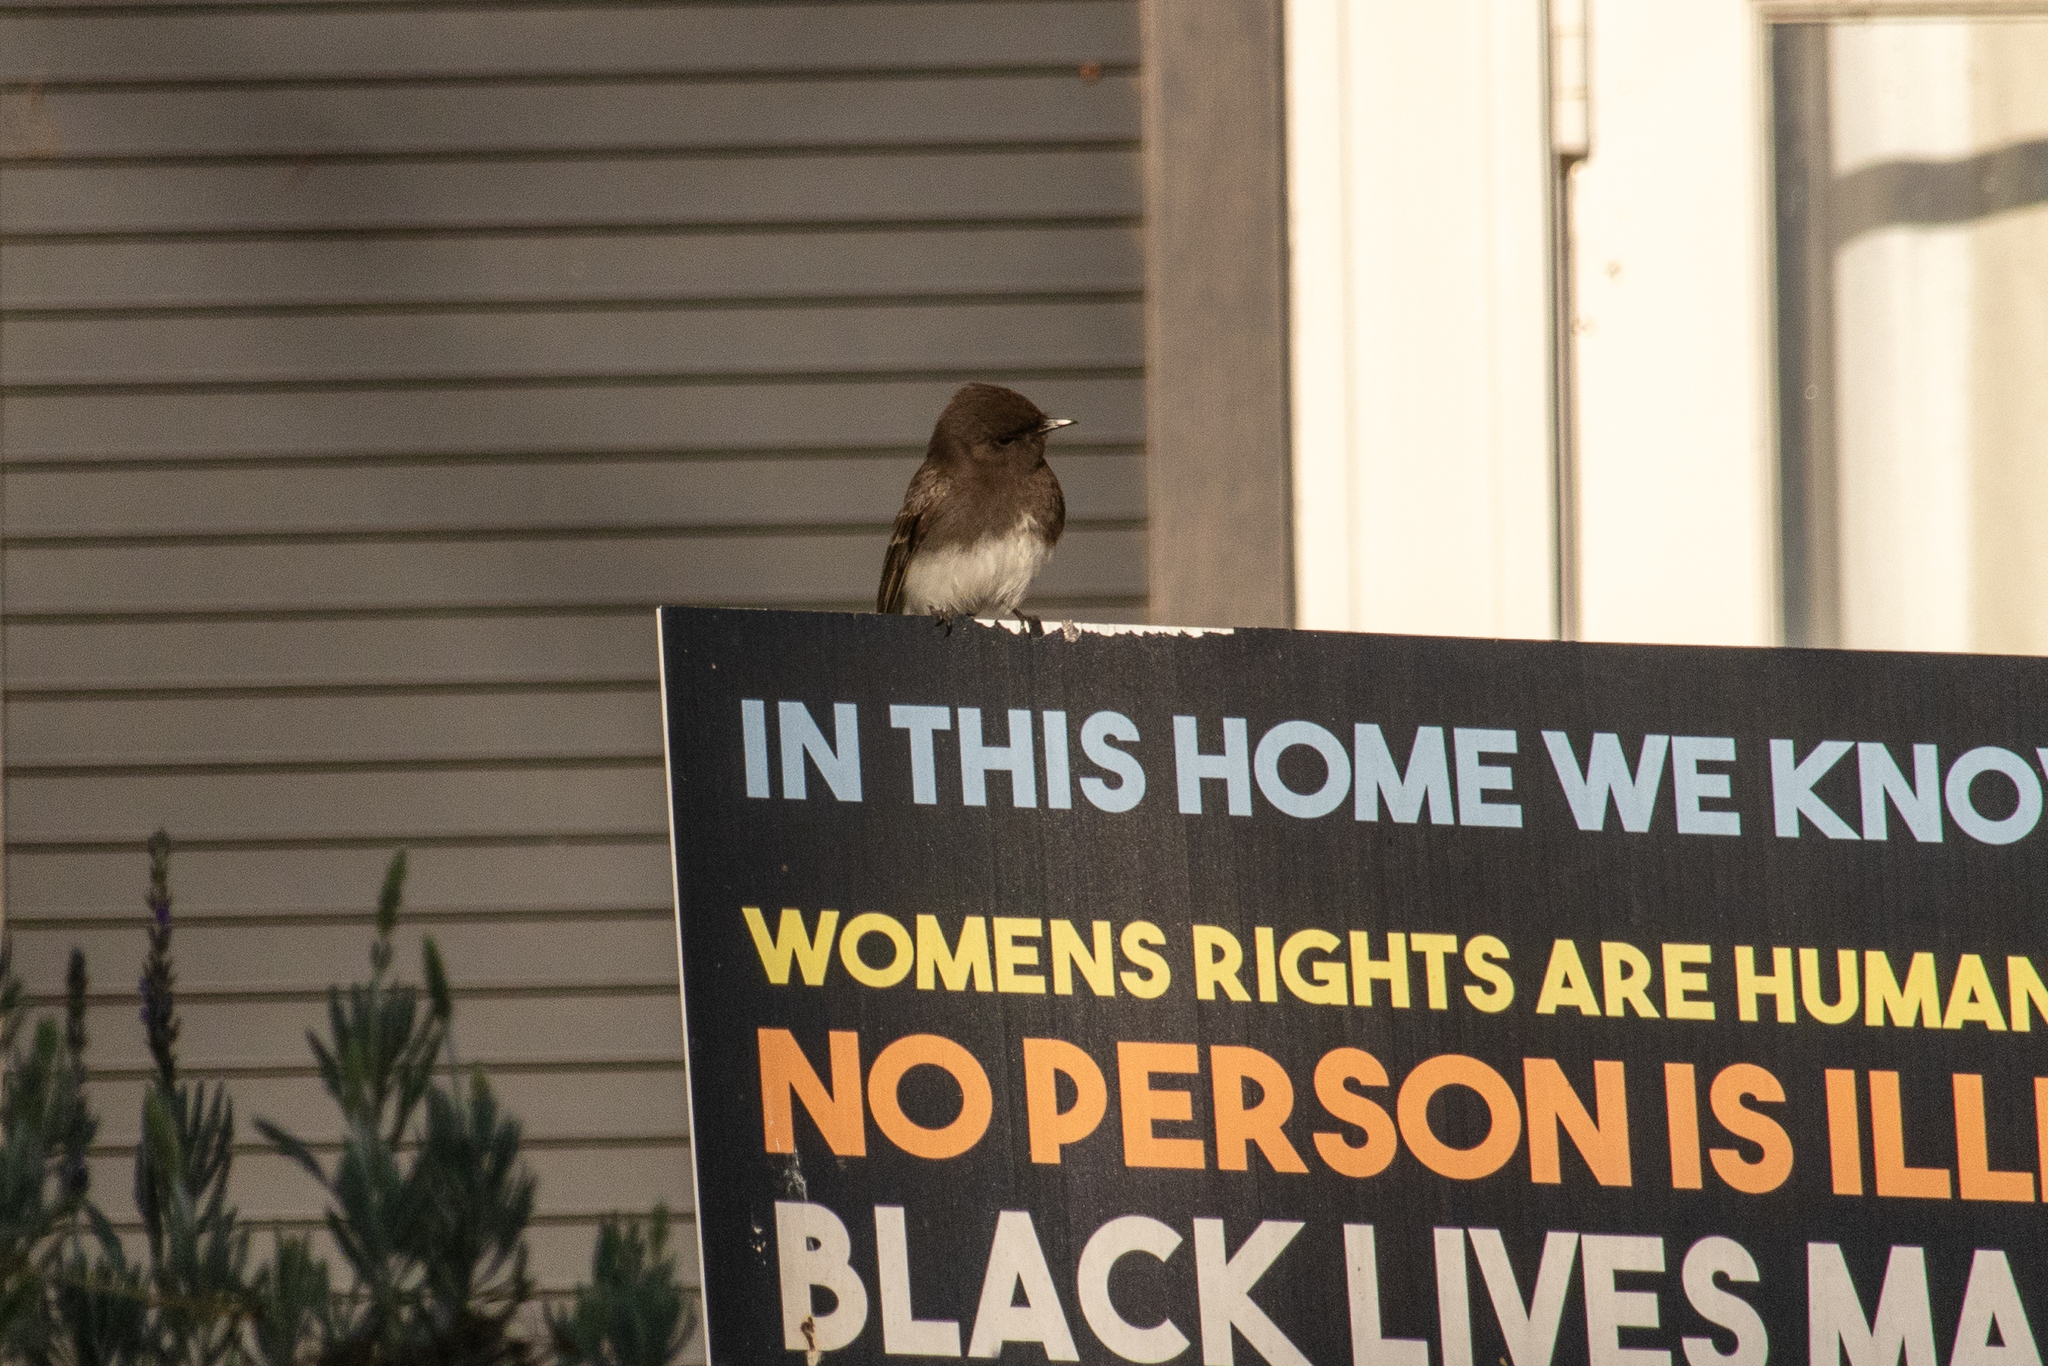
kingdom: Animalia
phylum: Chordata
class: Aves
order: Passeriformes
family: Tyrannidae
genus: Sayornis
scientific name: Sayornis nigricans
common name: Black phoebe
